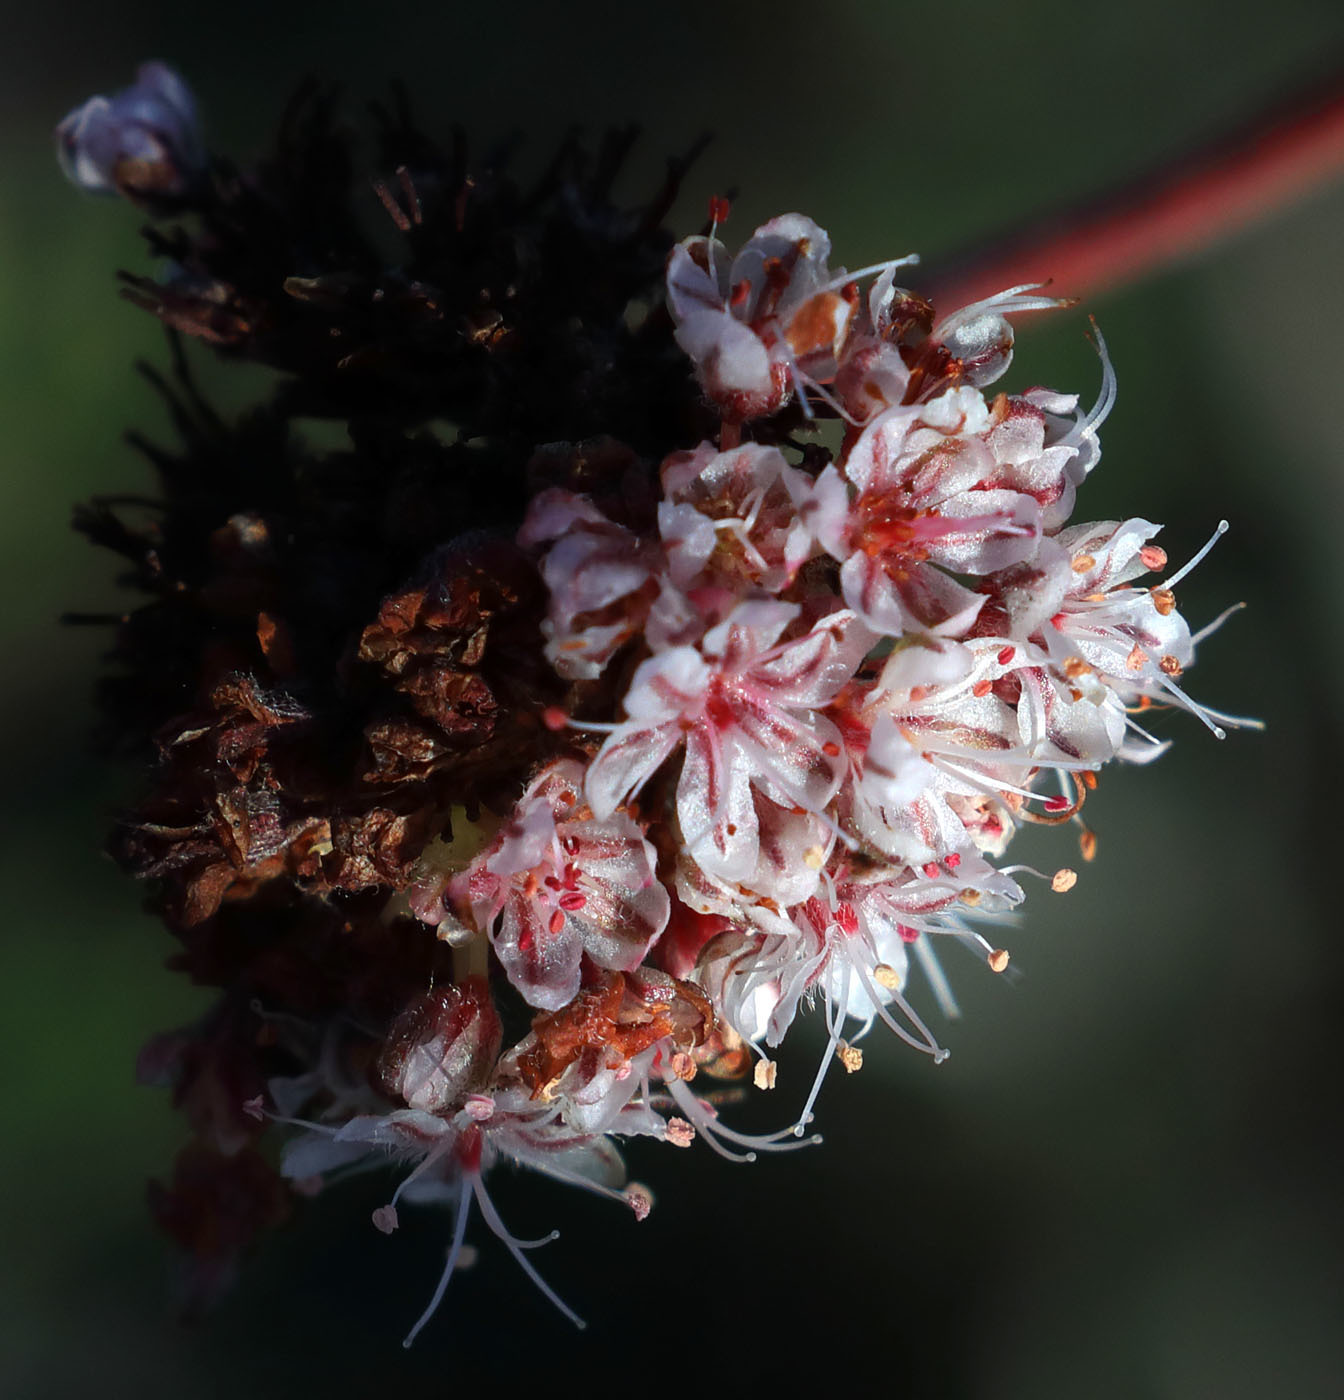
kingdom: Plantae
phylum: Tracheophyta
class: Magnoliopsida
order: Caryophyllales
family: Polygonaceae
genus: Eriogonum
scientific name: Eriogonum fasciculatum
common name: California wild buckwheat
